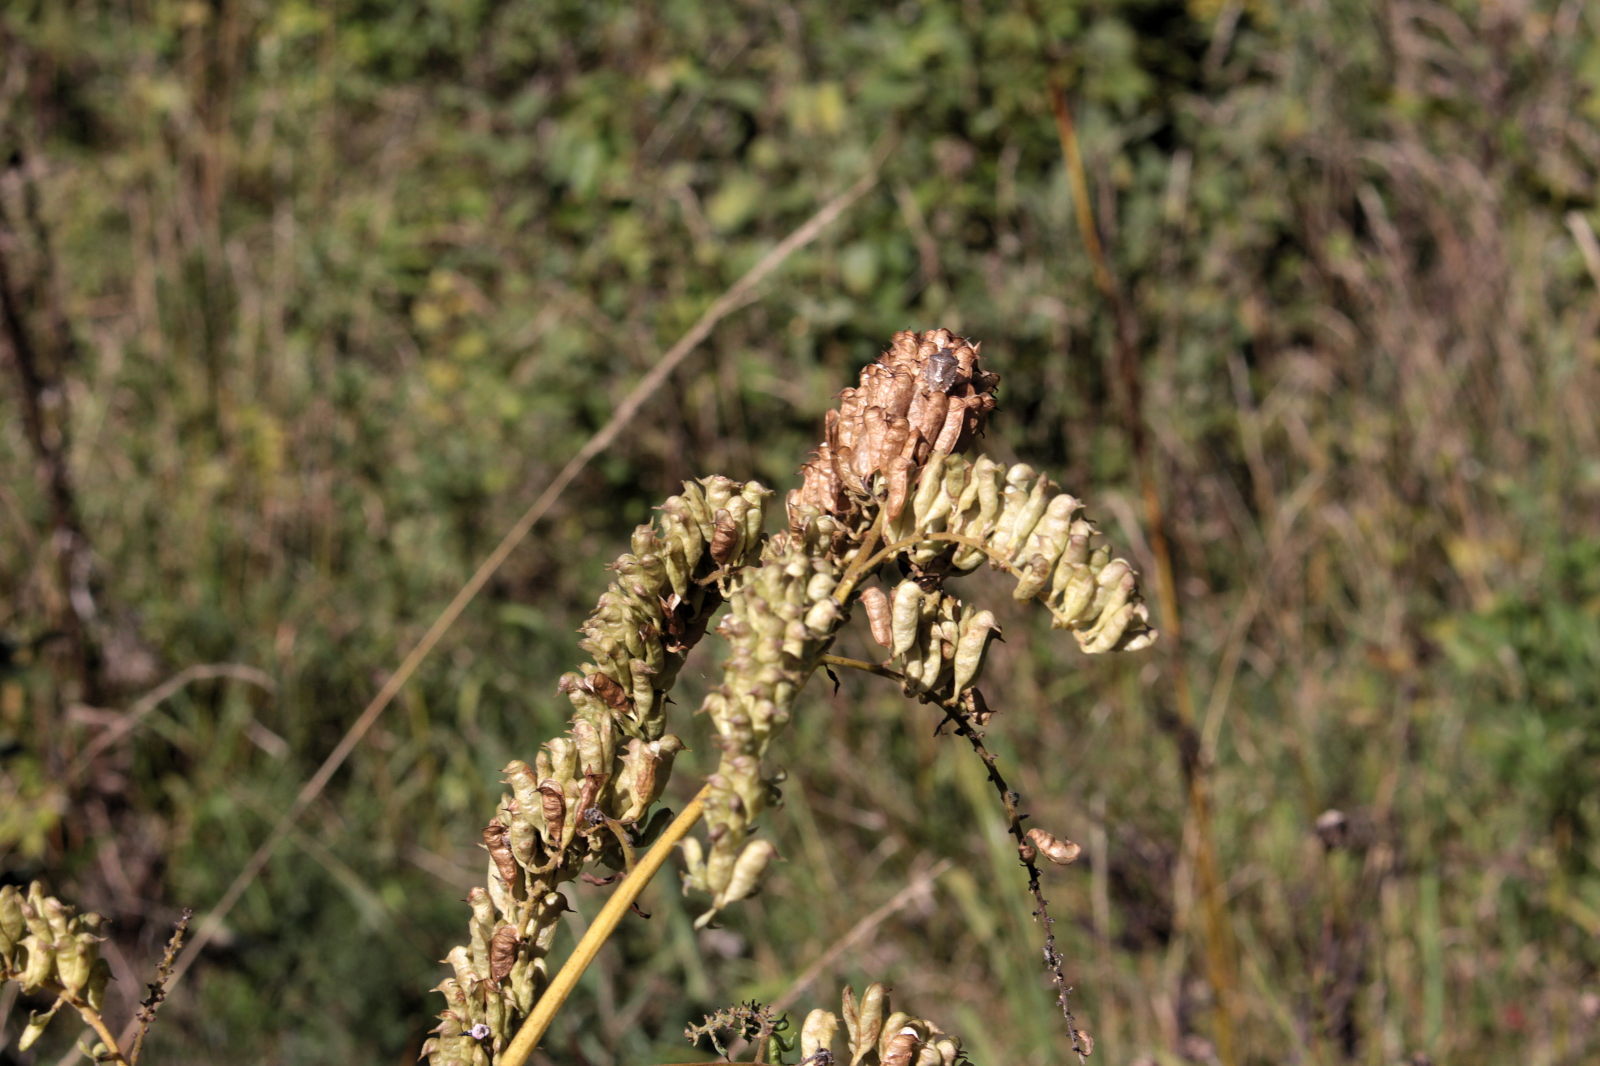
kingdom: Plantae
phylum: Tracheophyta
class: Magnoliopsida
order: Ranunculales
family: Ranunculaceae
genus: Actaea
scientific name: Actaea europaea
